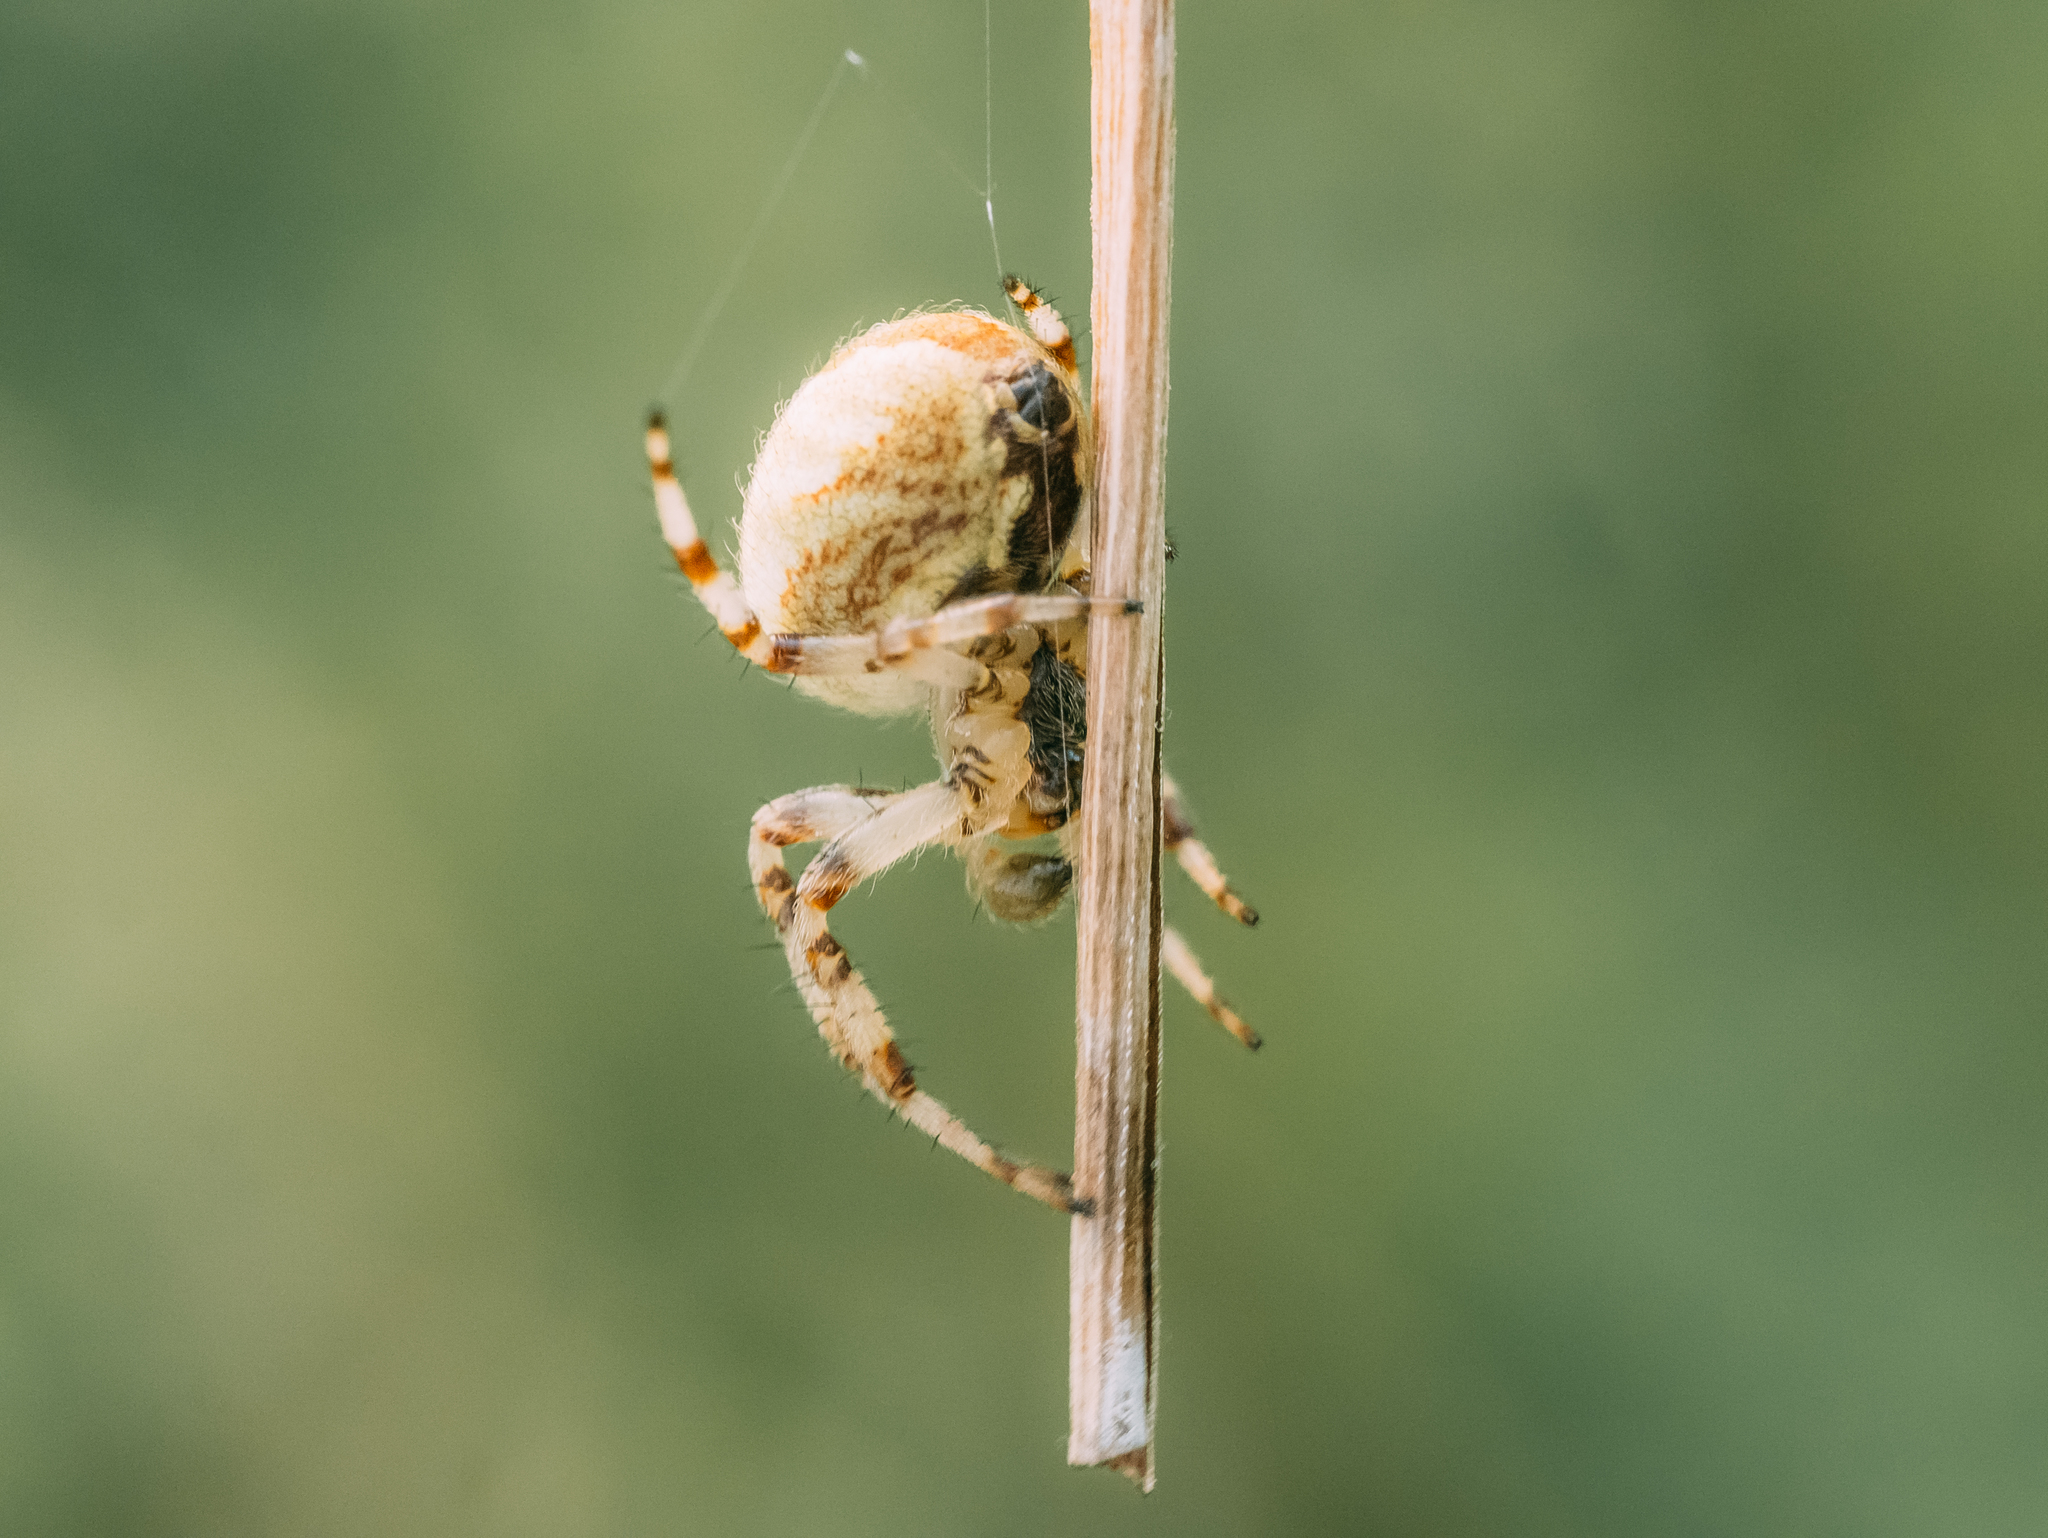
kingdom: Animalia
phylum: Arthropoda
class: Arachnida
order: Araneae
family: Araneidae
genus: Araneus
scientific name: Araneus quadratus
